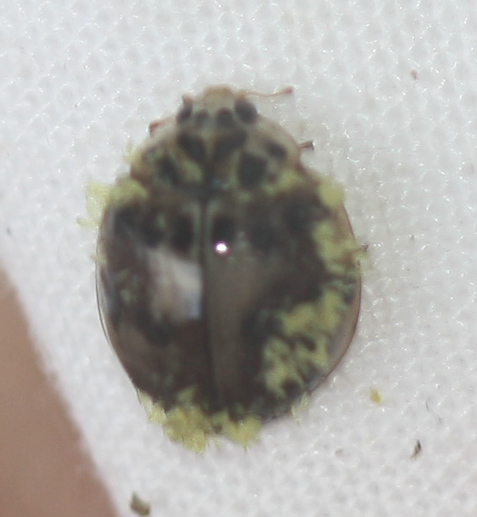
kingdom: Animalia
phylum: Arthropoda
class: Insecta
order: Coleoptera
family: Coccinellidae
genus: Olla
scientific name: Olla v-nigrum
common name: Ashy gray lady beetle
